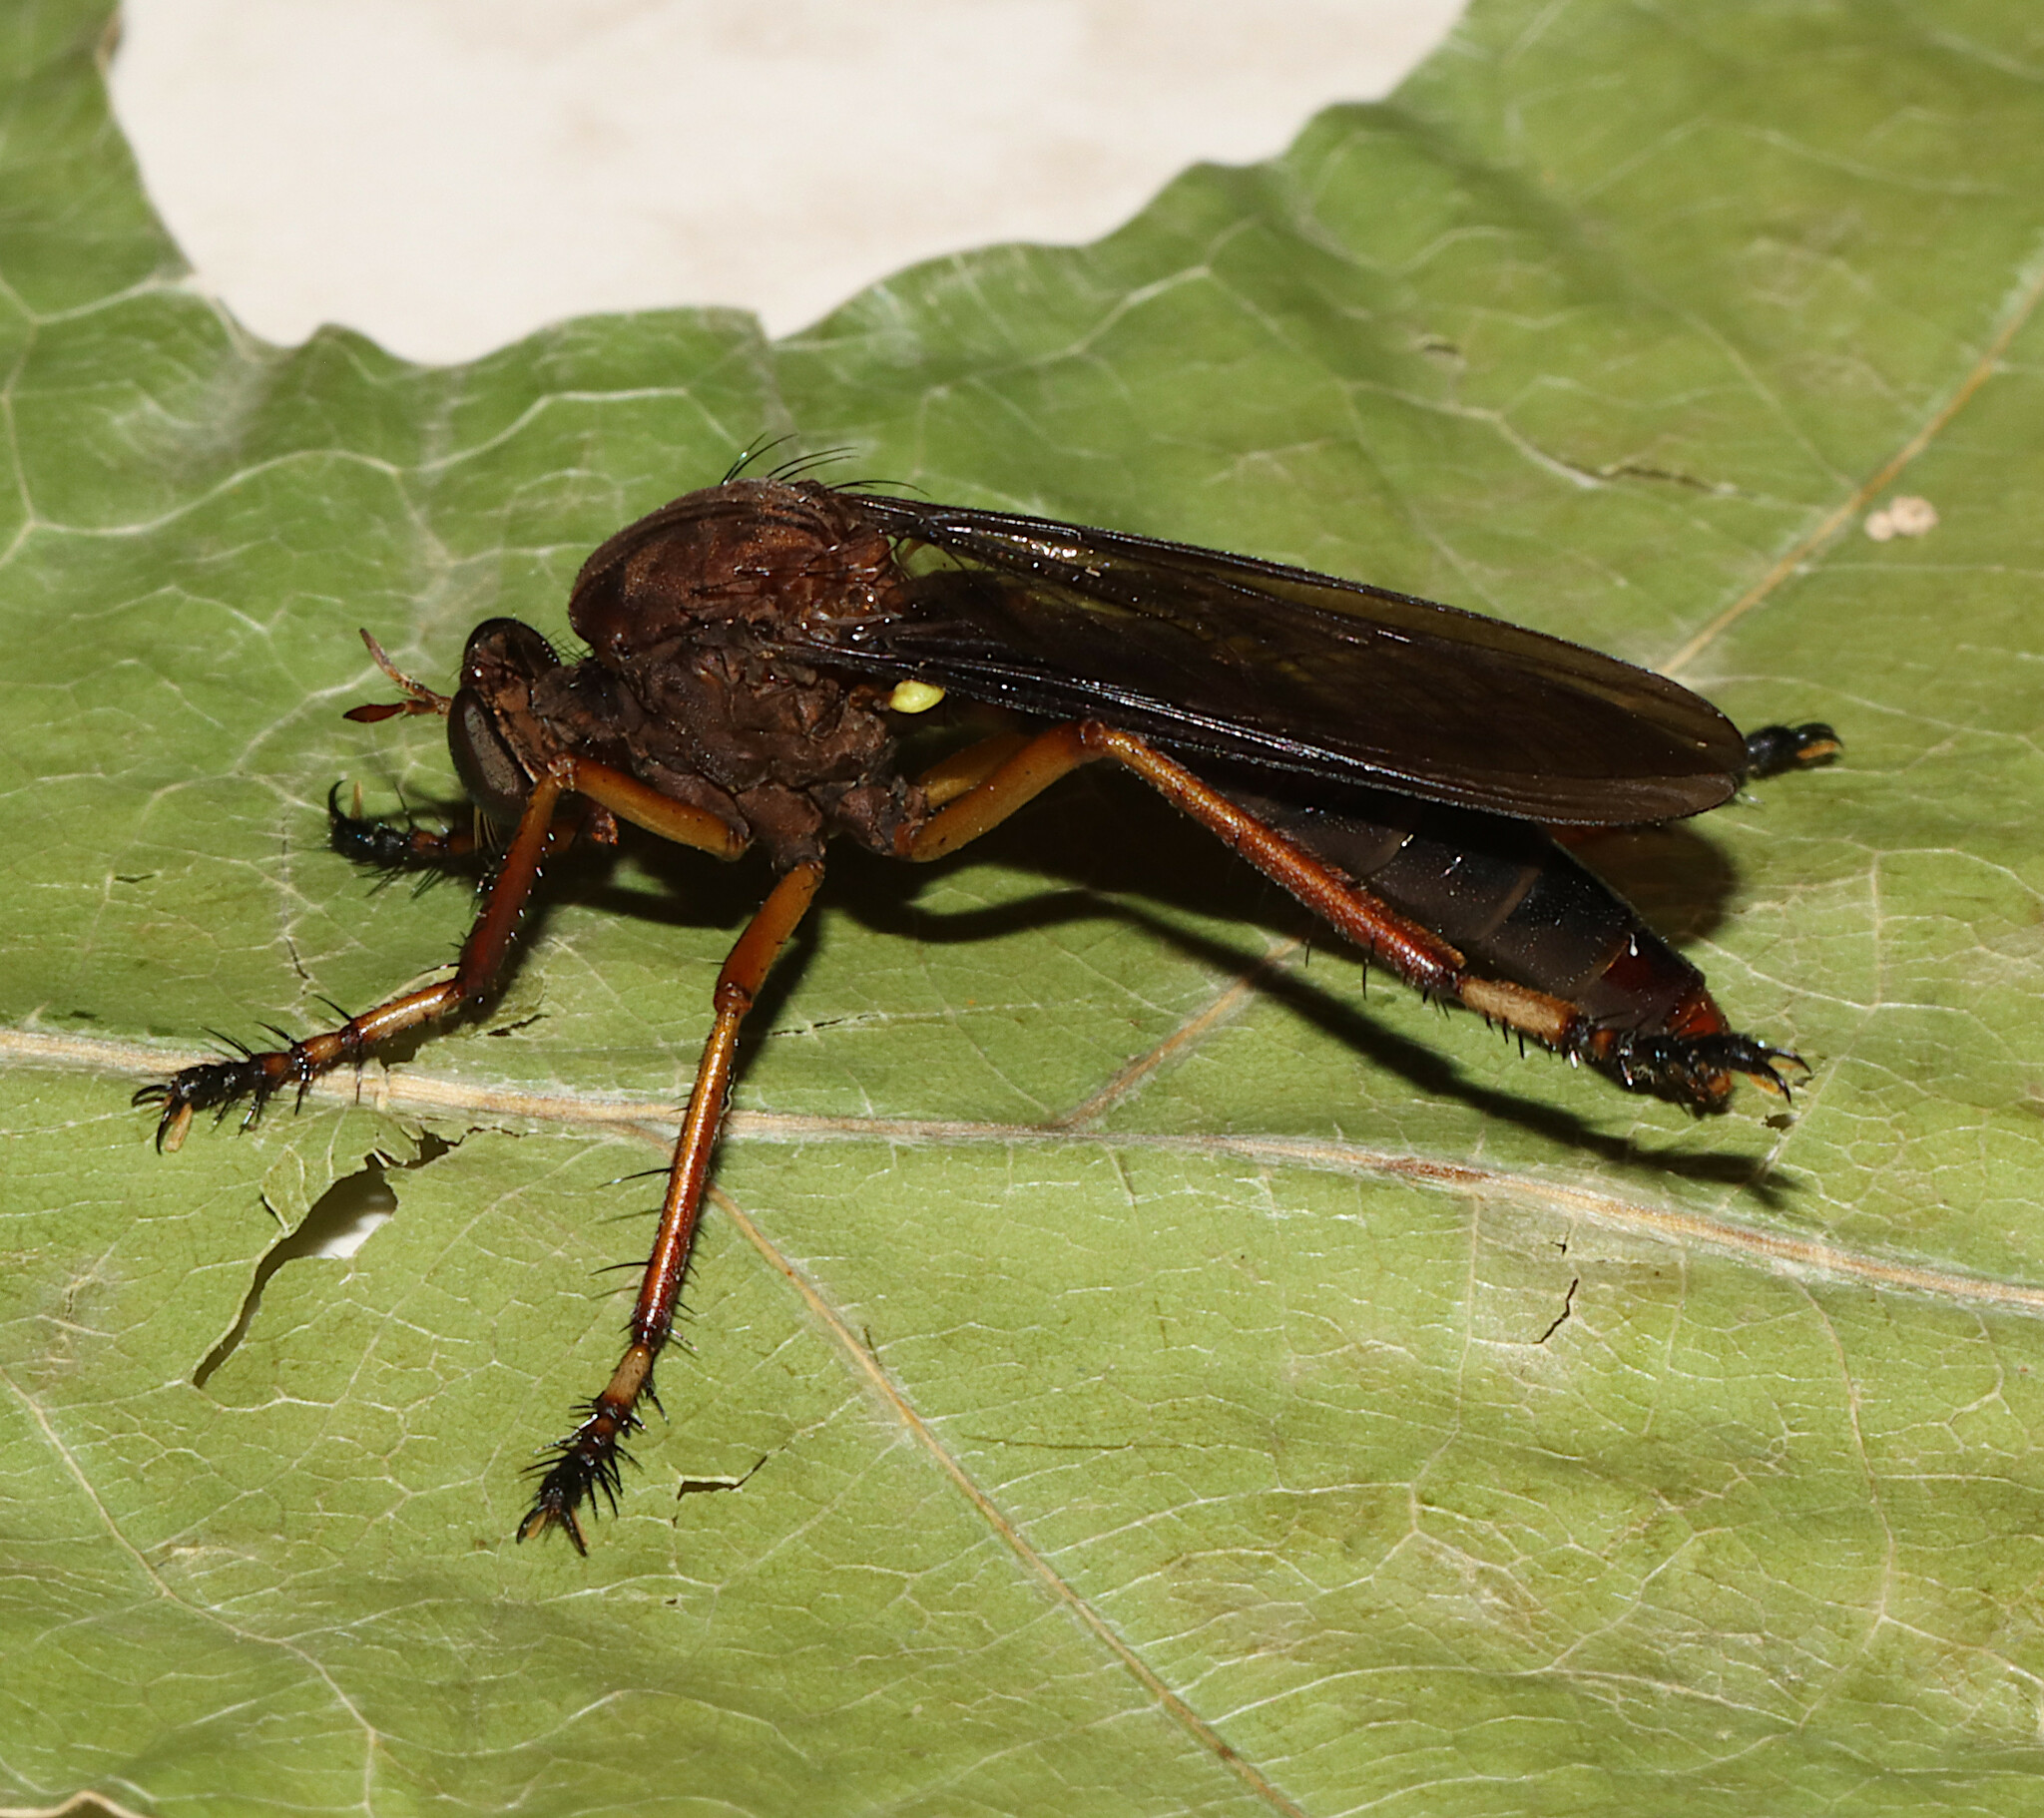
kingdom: Animalia
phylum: Arthropoda
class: Insecta
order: Diptera
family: Asilidae
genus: Diogmites
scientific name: Diogmites platypterus
